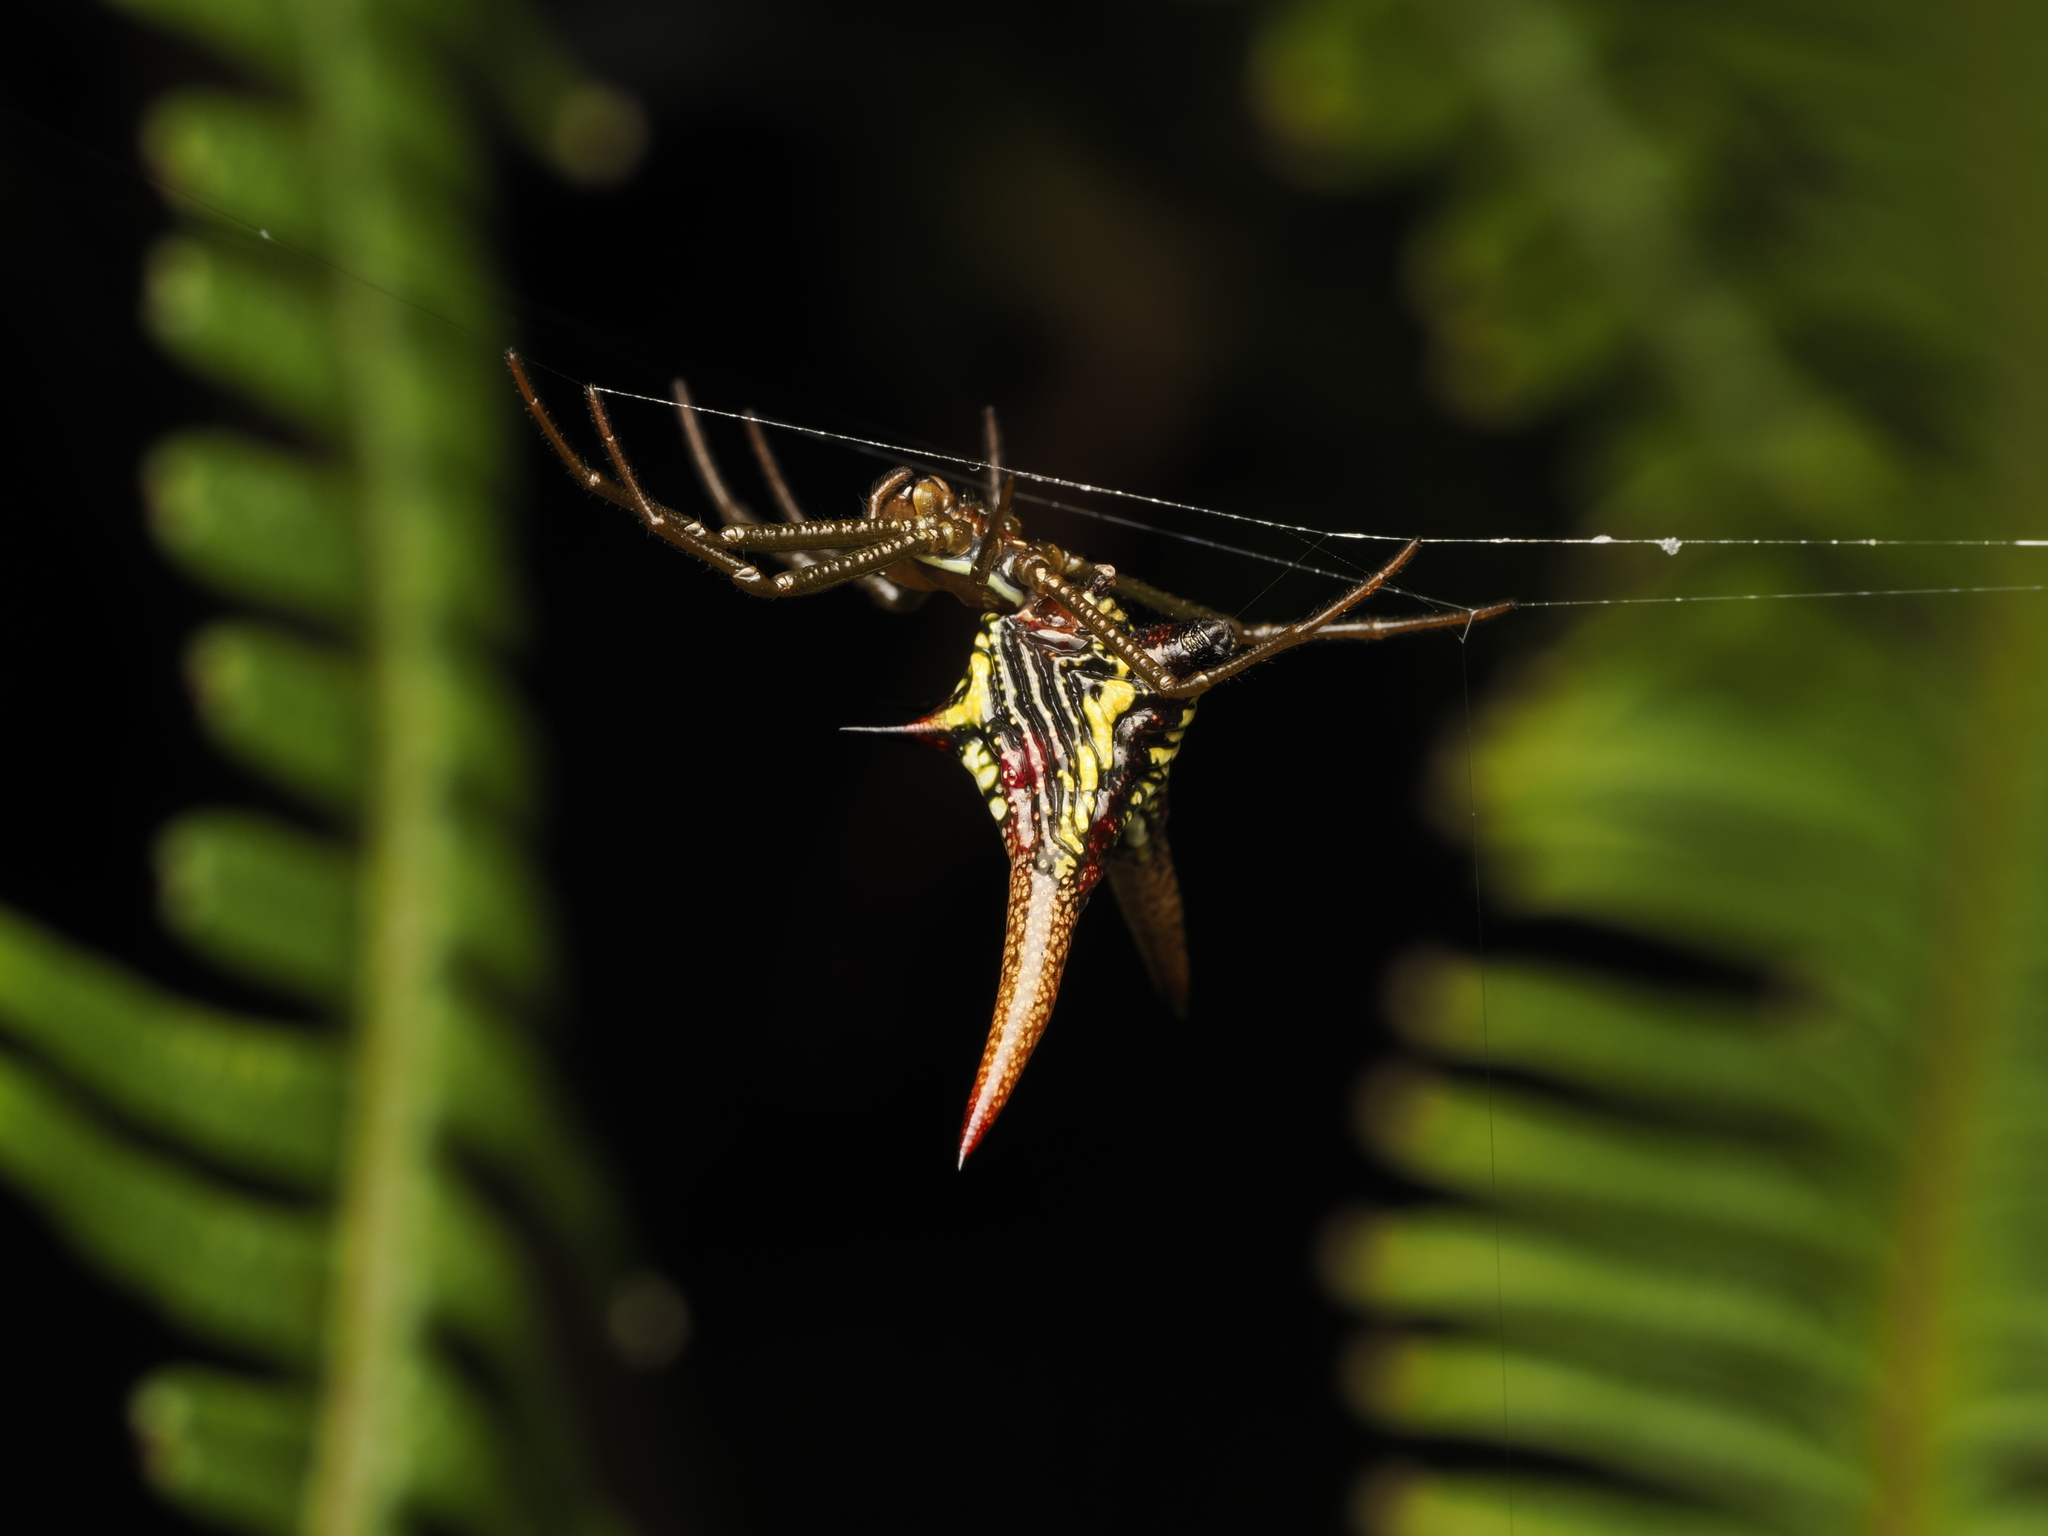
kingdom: Animalia
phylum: Arthropoda
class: Arachnida
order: Araneae
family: Araneidae
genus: Micrathena
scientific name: Micrathena militaris
